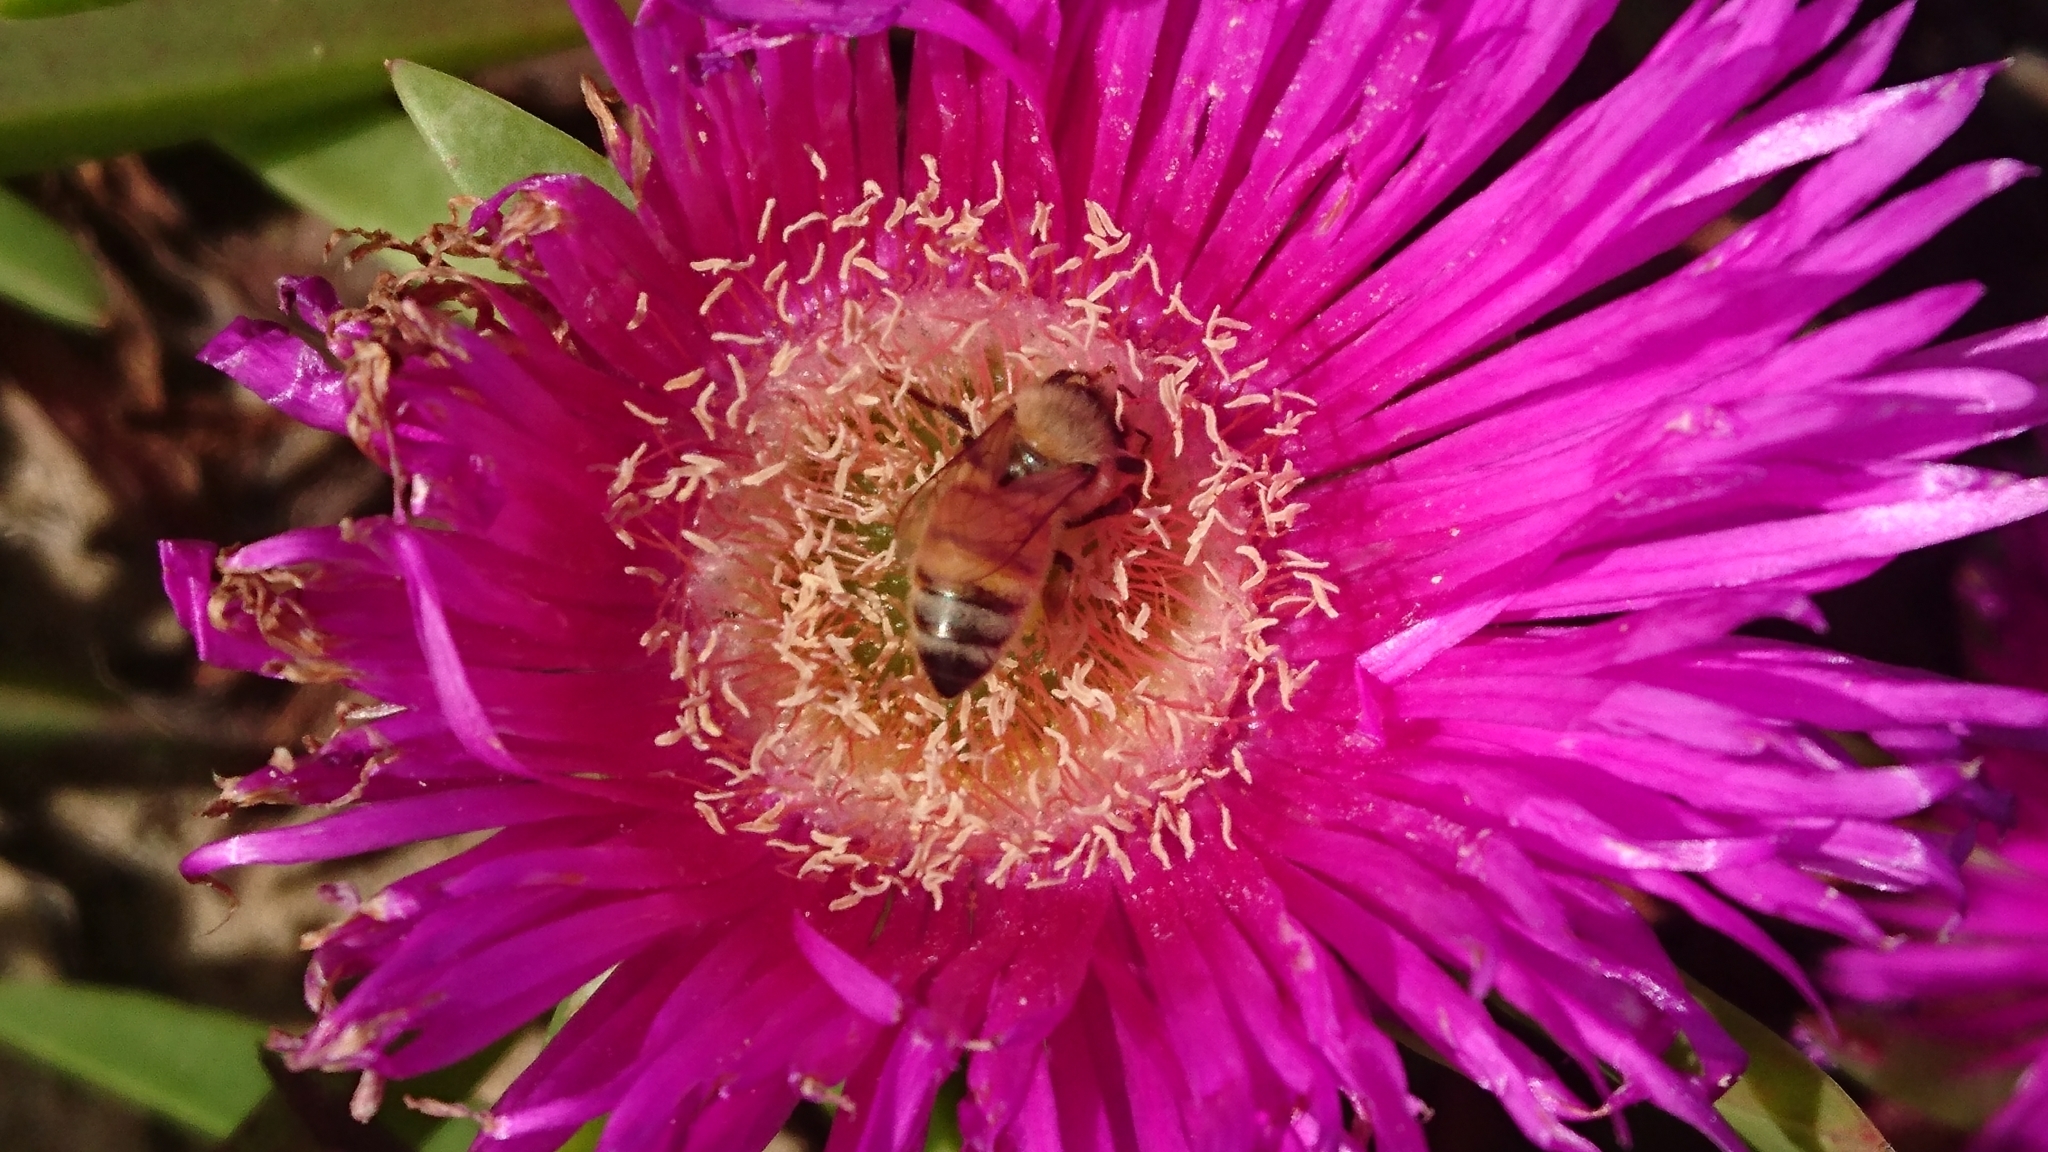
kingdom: Animalia
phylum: Arthropoda
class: Insecta
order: Hymenoptera
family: Apidae
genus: Apis
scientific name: Apis mellifera
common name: Honey bee
